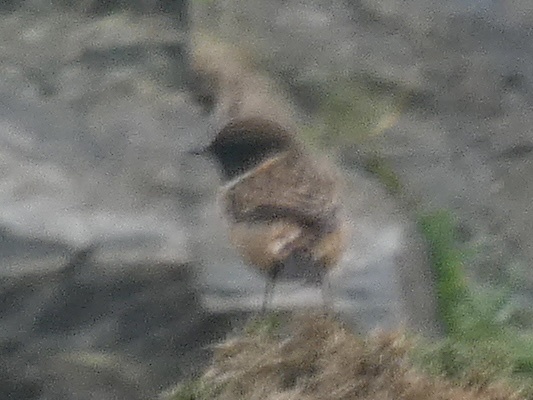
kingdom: Animalia
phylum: Chordata
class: Aves
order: Passeriformes
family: Muscicapidae
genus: Saxicola
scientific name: Saxicola rubicola
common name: European stonechat
